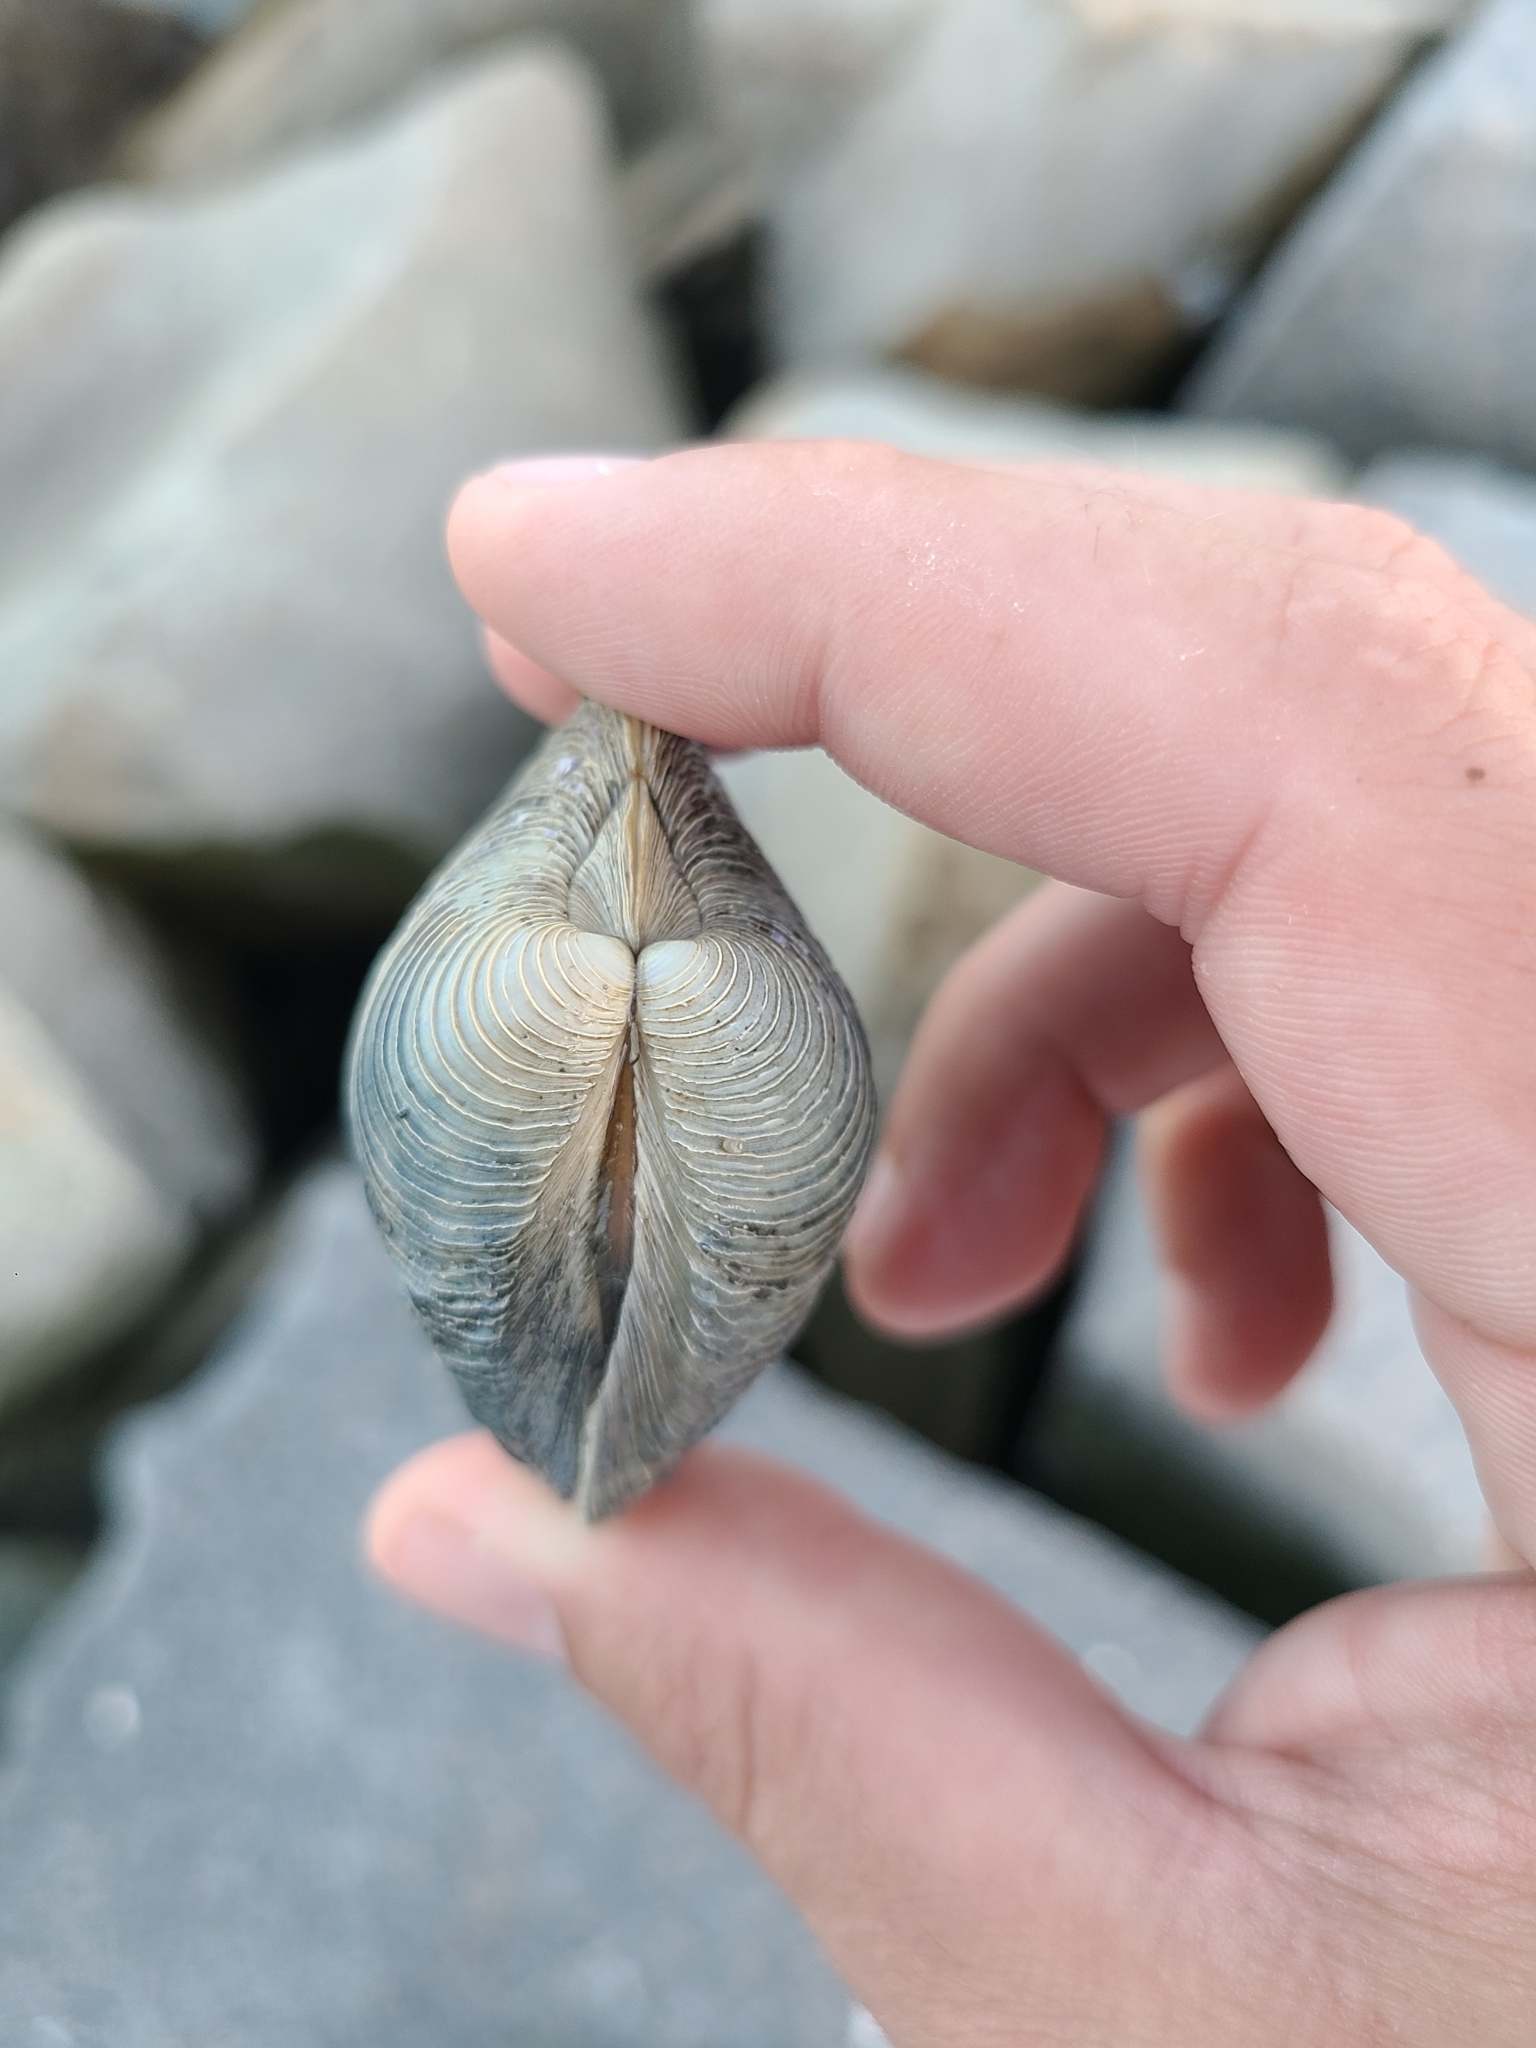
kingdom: Animalia
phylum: Mollusca
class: Bivalvia
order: Venerida
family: Veneridae
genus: Mercenaria
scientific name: Mercenaria mercenaria
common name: American hard-shelled clam
